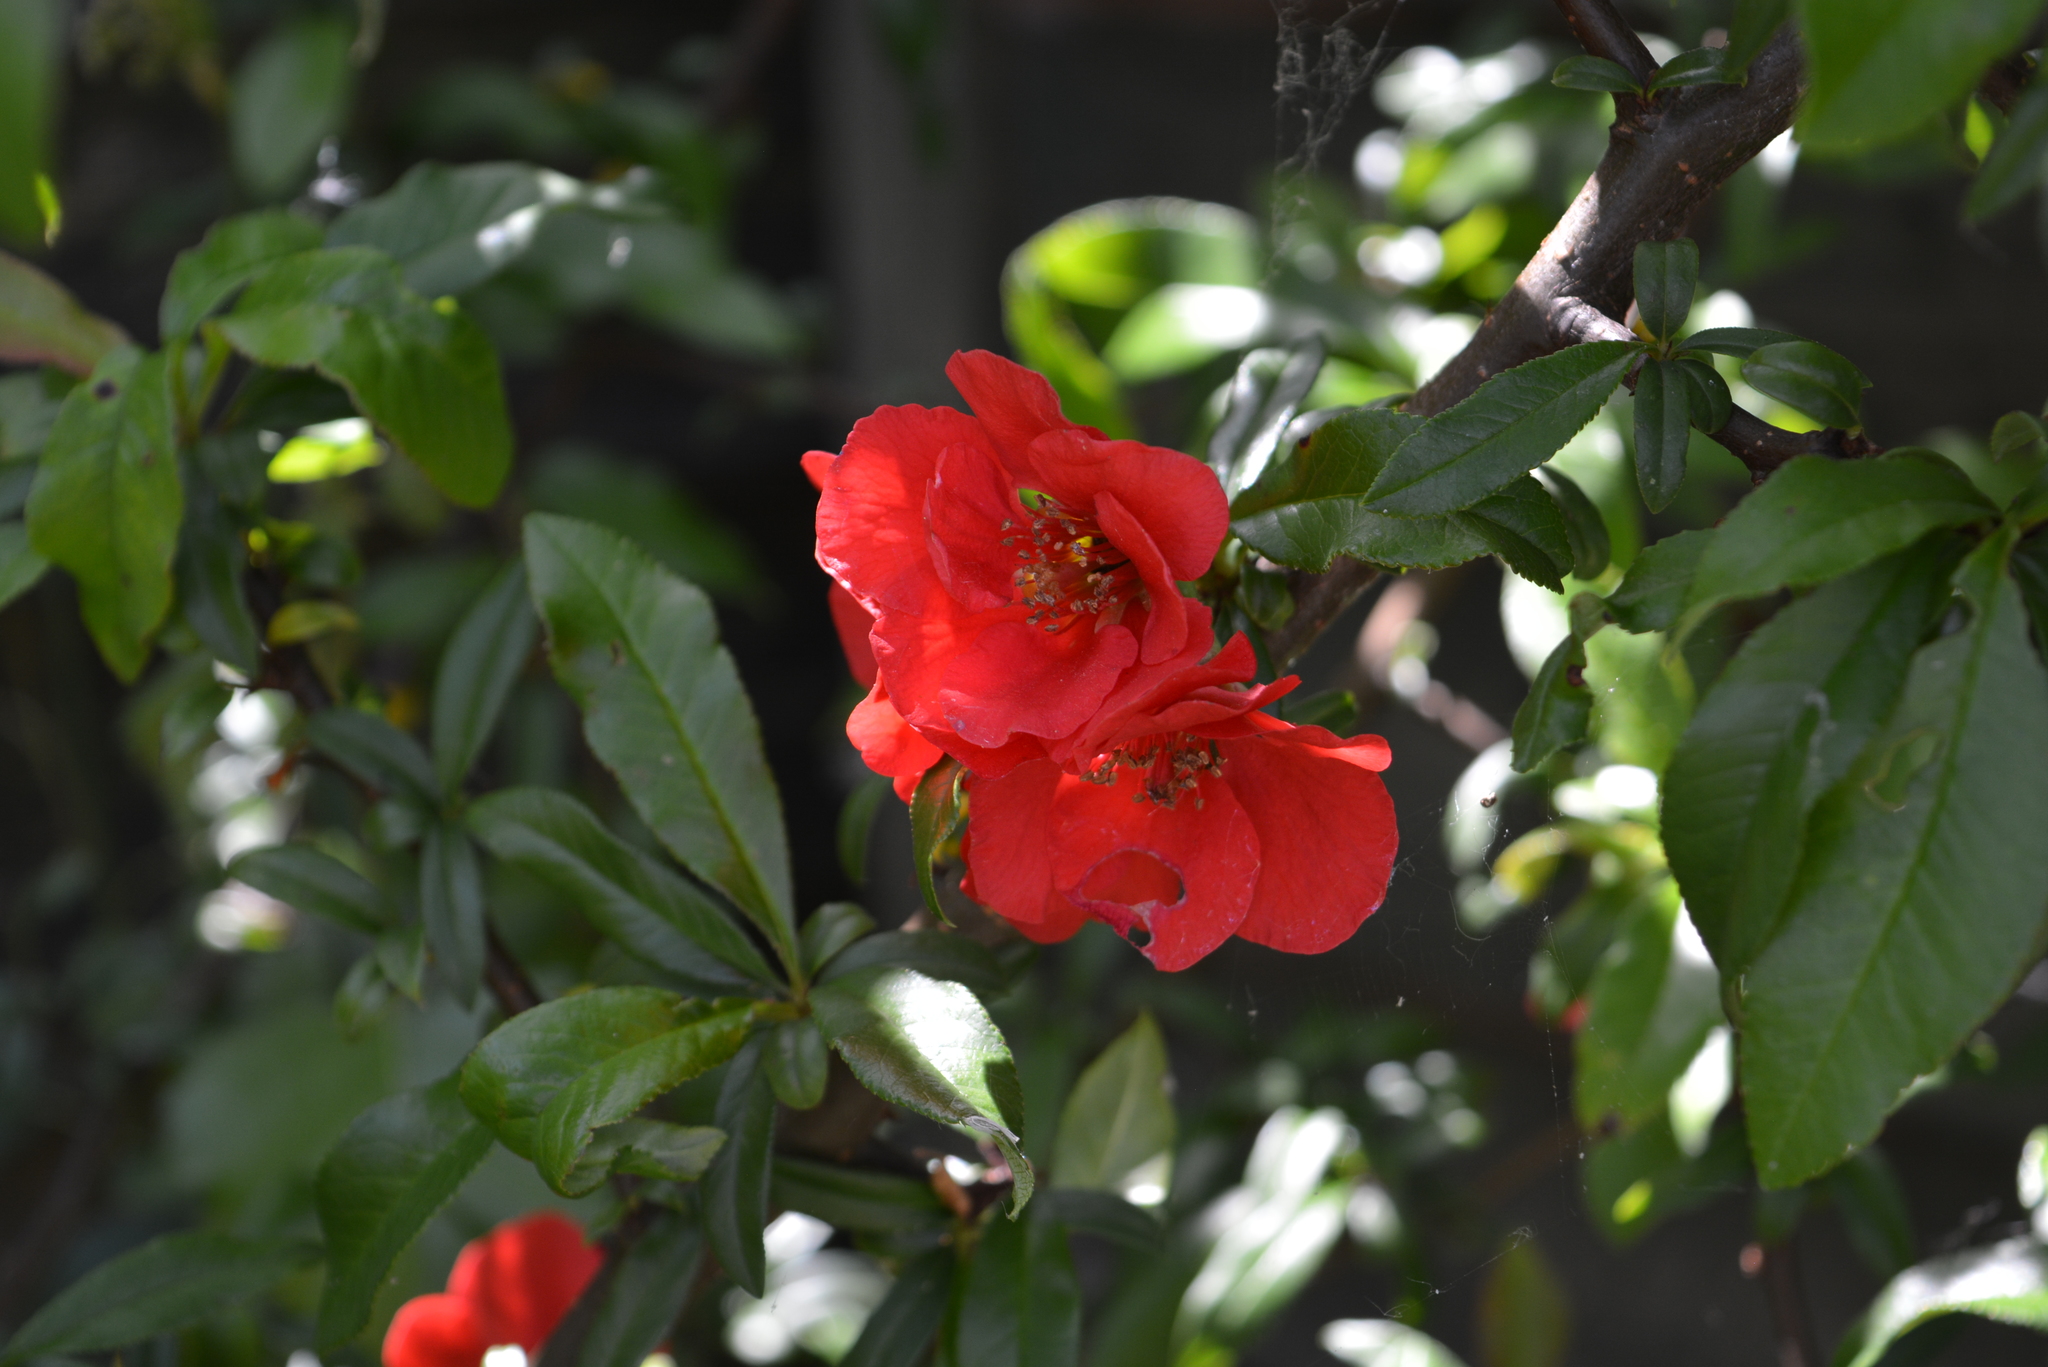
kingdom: Plantae
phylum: Tracheophyta
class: Magnoliopsida
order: Rosales
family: Rosaceae
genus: Chaenomeles
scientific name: Chaenomeles speciosa
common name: Japanese quince
